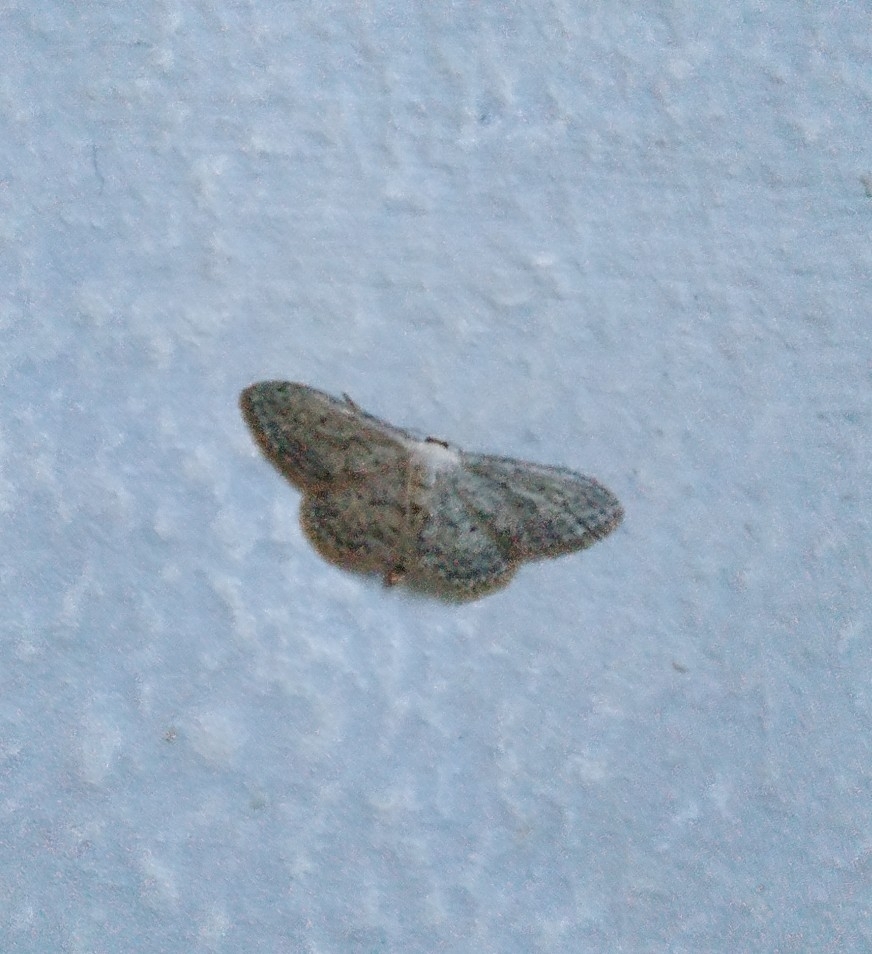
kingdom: Animalia
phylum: Arthropoda
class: Insecta
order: Lepidoptera
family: Geometridae
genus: Idaea
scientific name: Idaea seriata
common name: Small dusty wave
